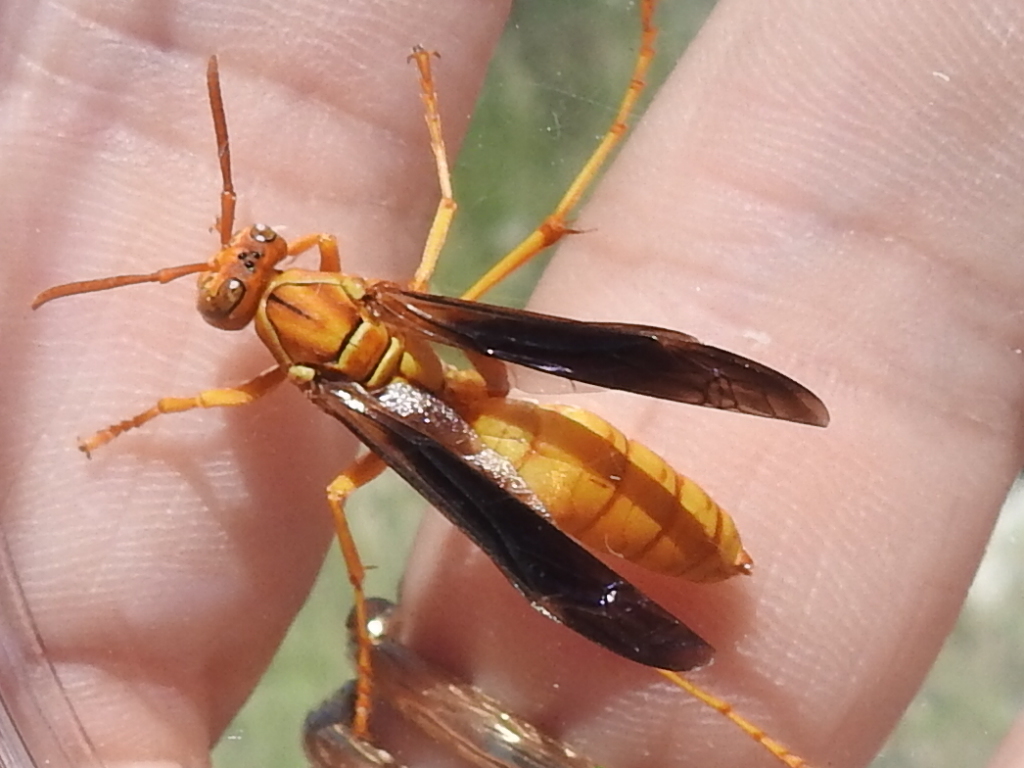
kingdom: Animalia
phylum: Arthropoda
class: Insecta
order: Hymenoptera
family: Eumenidae
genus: Polistes
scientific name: Polistes flavus
